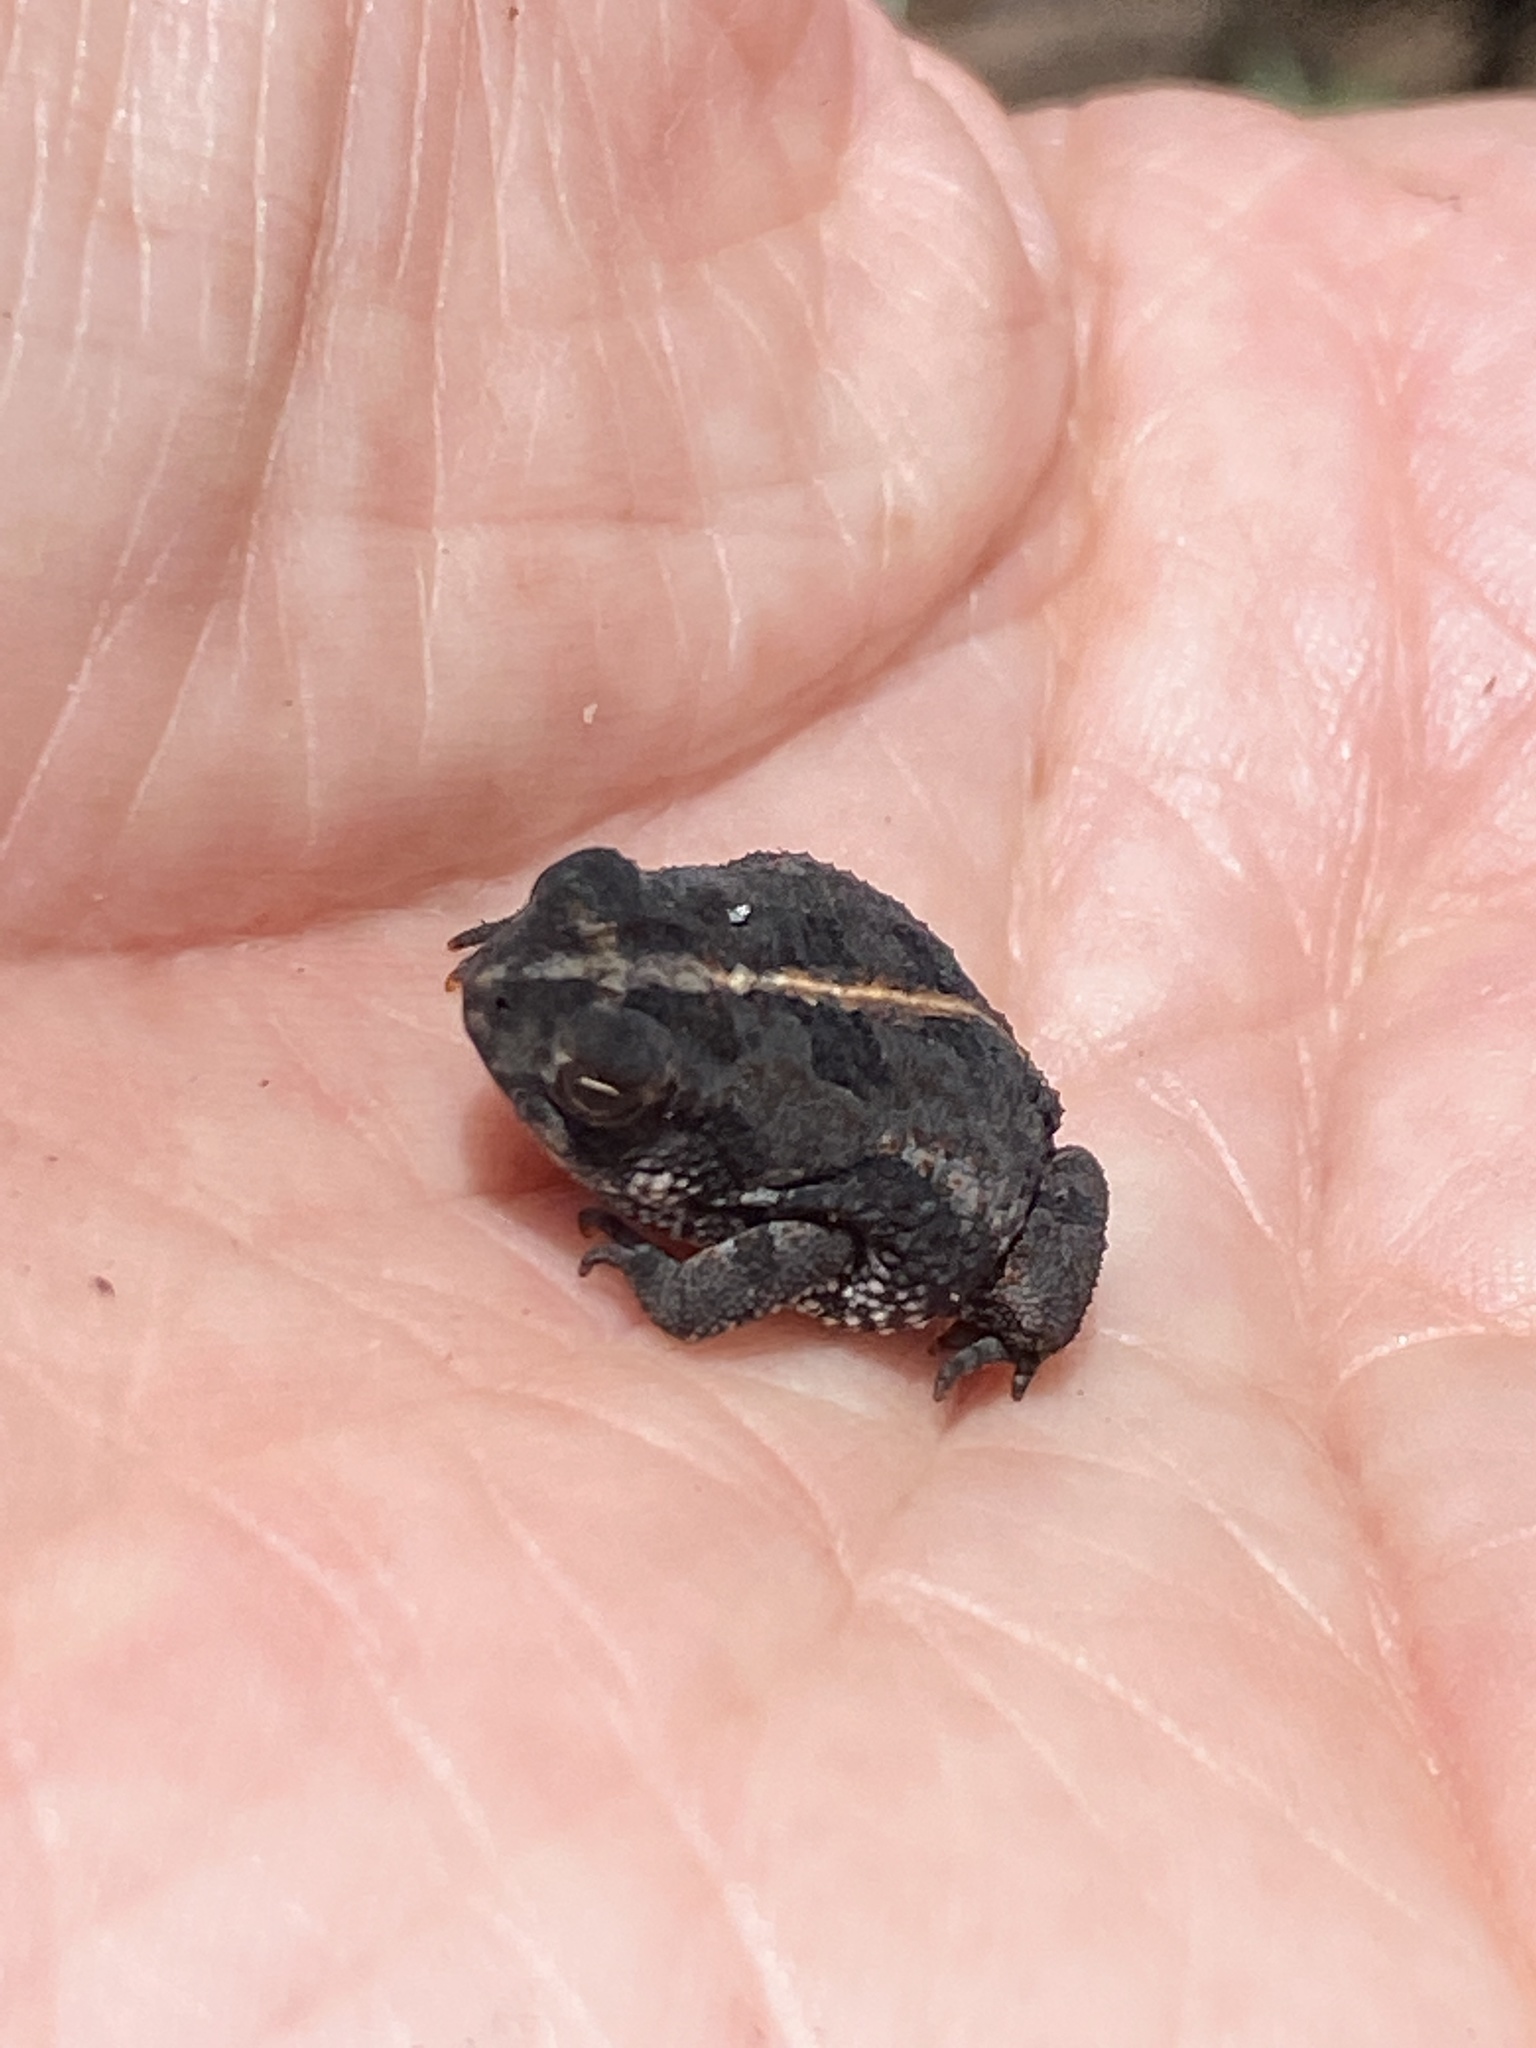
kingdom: Animalia
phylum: Chordata
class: Amphibia
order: Anura
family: Bufonidae
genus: Anaxyrus
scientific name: Anaxyrus quercicus
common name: Oak toad
